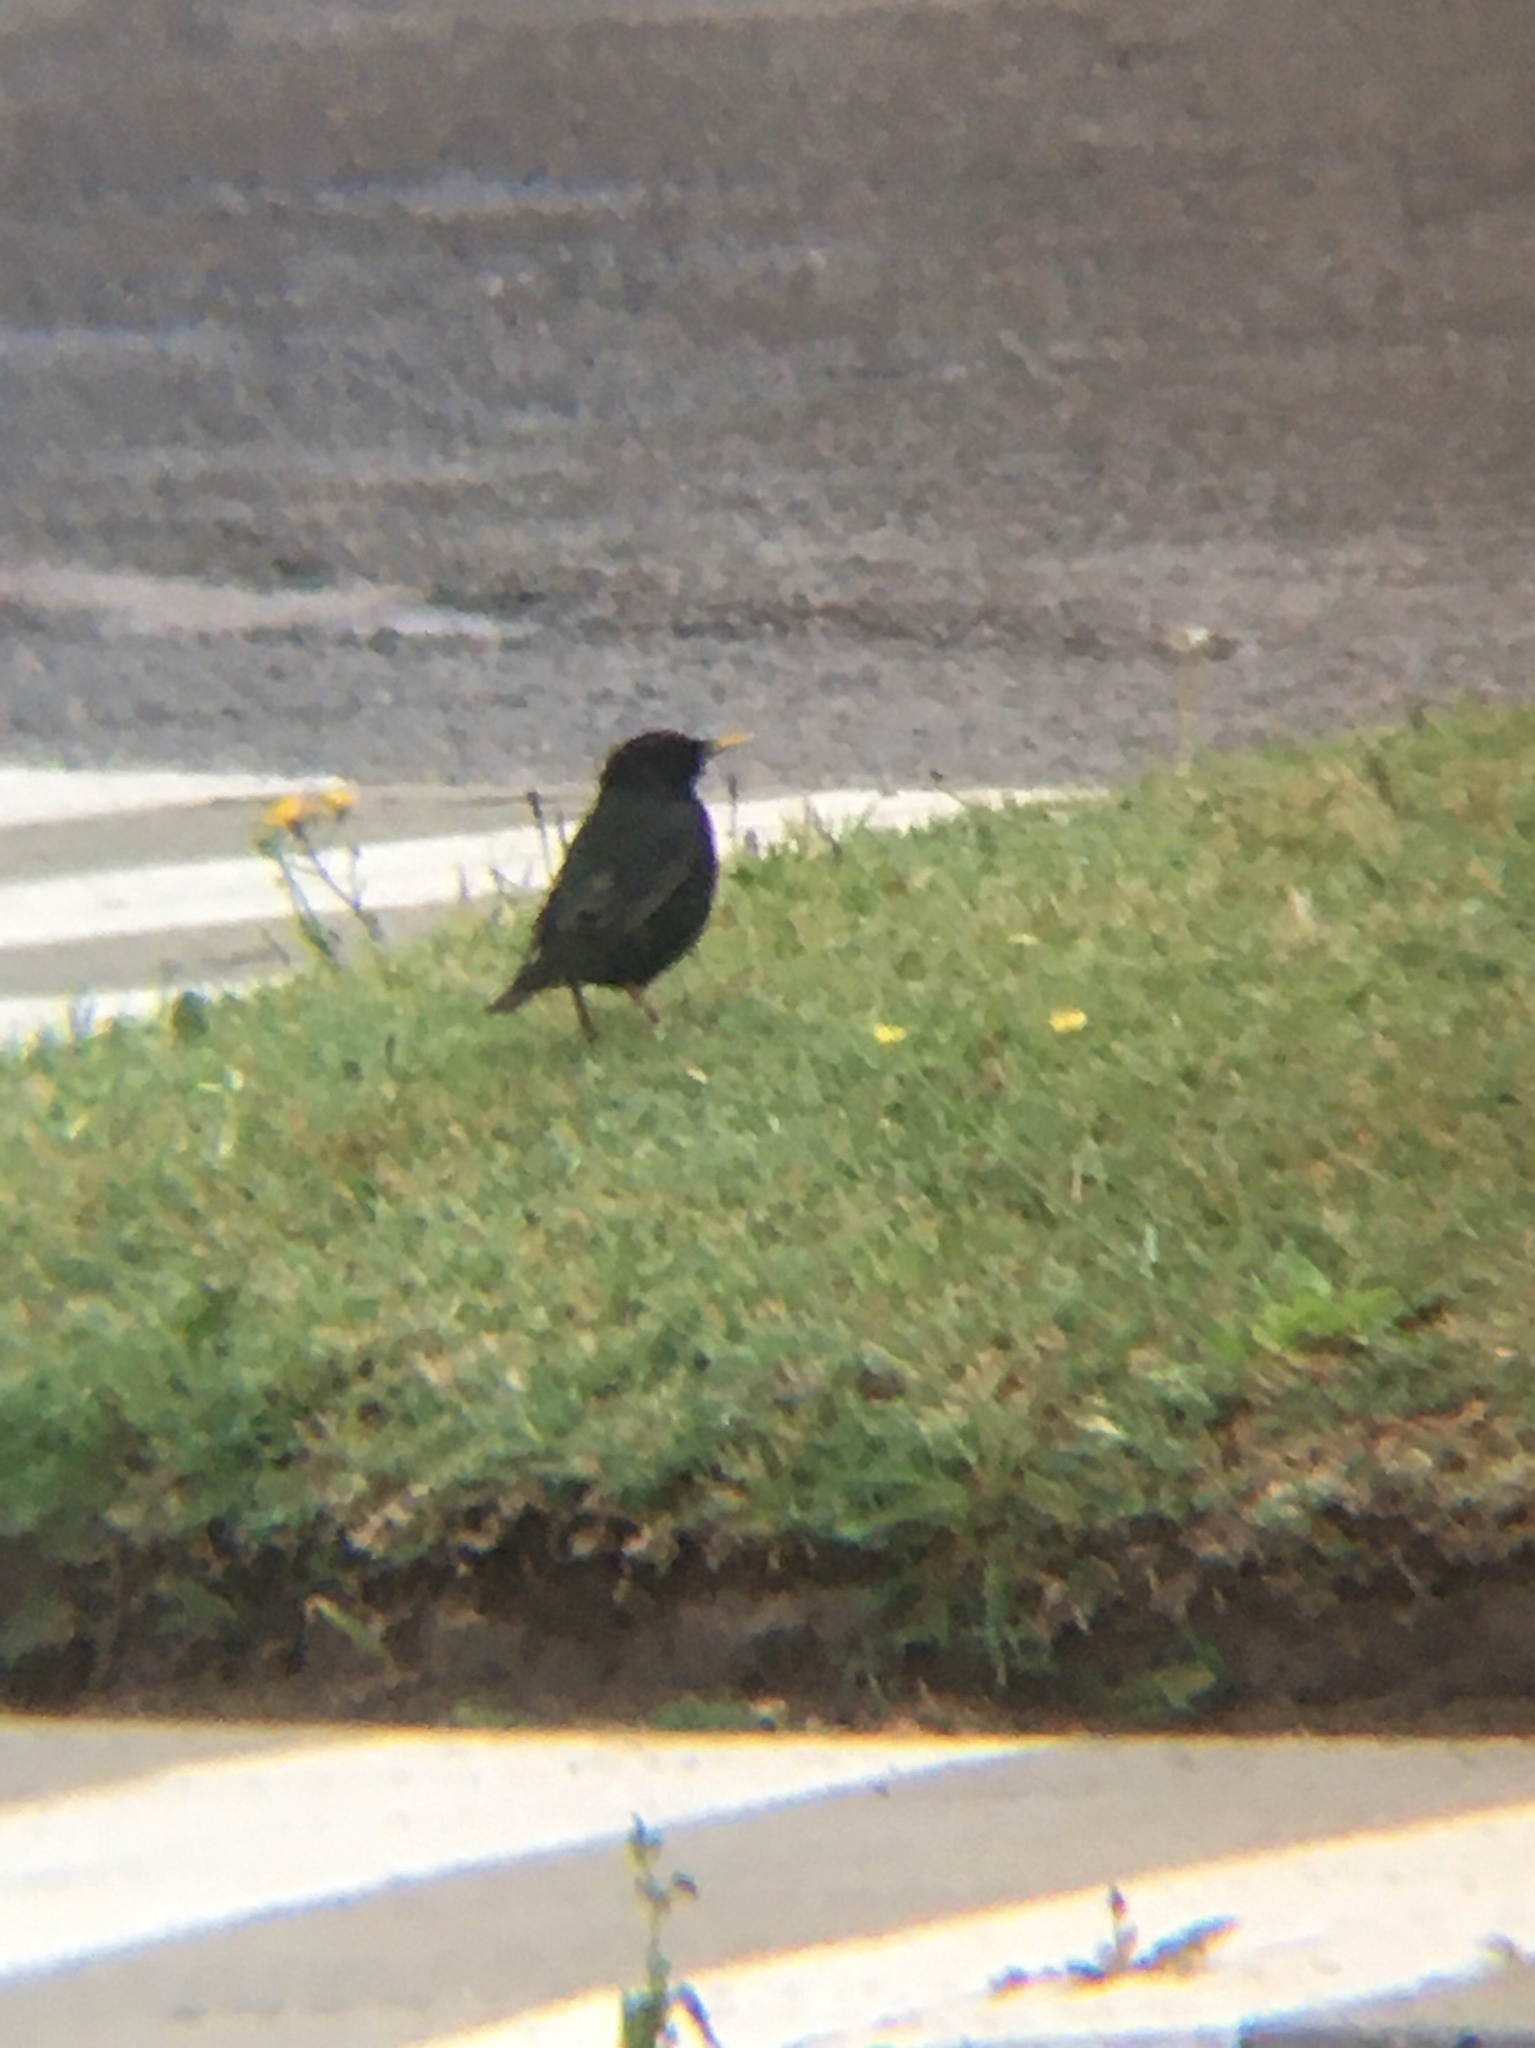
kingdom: Animalia
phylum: Chordata
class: Aves
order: Passeriformes
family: Sturnidae
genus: Sturnus
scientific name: Sturnus vulgaris
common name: Common starling
